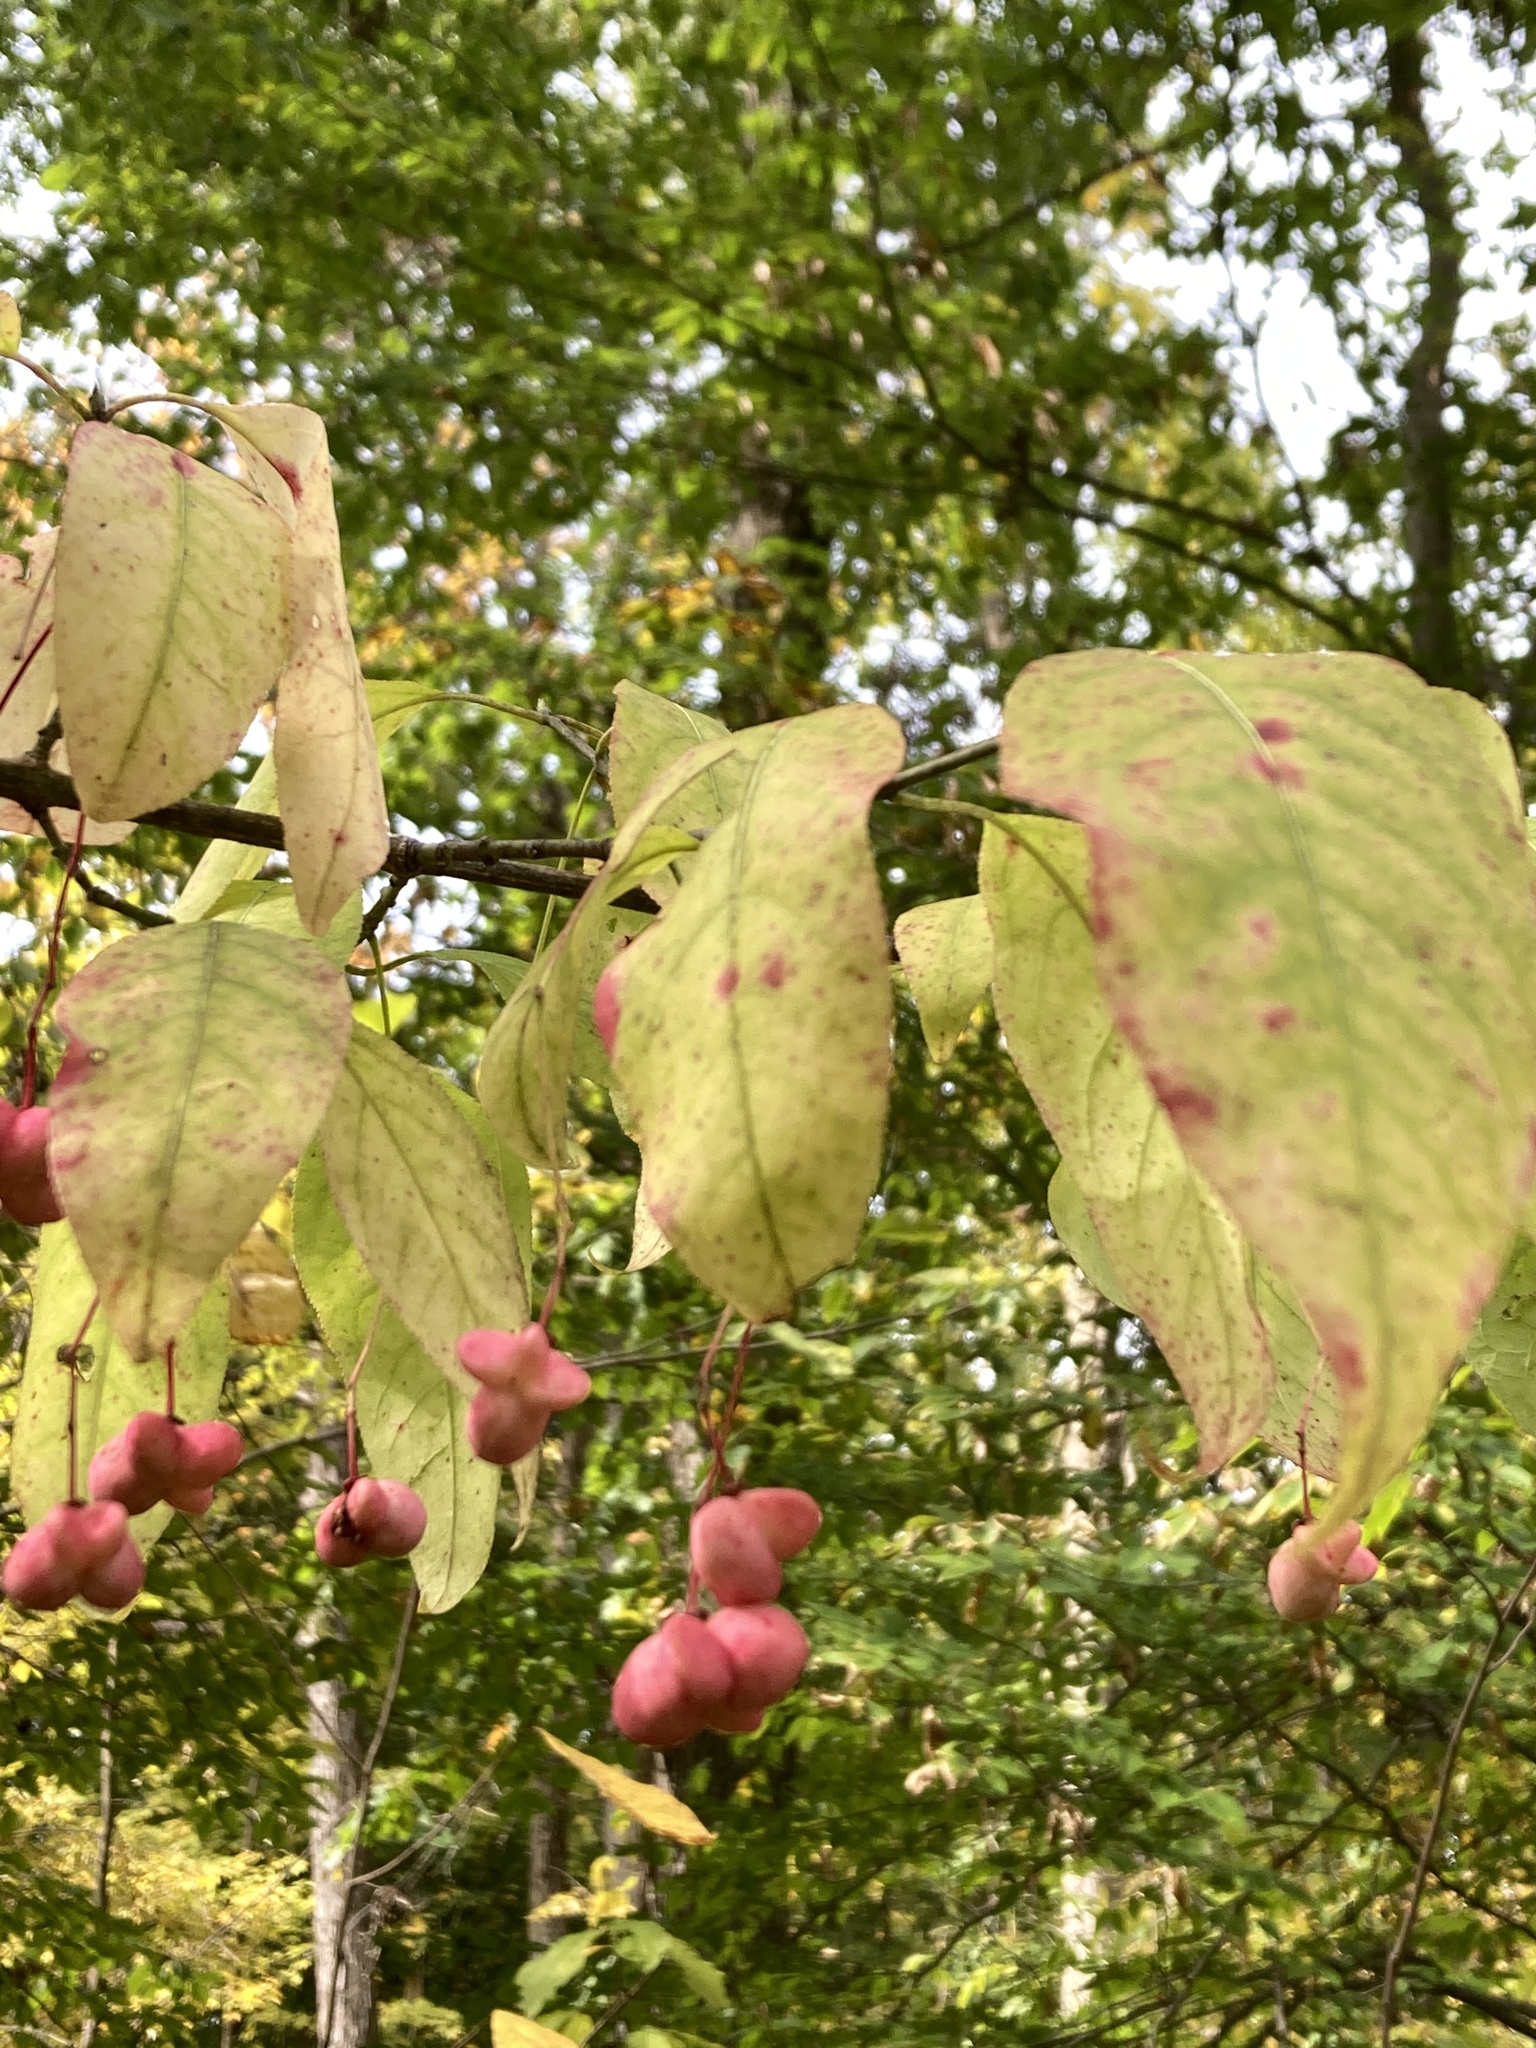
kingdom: Plantae
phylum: Tracheophyta
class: Magnoliopsida
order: Celastrales
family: Celastraceae
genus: Euonymus
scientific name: Euonymus atropurpureus
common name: Eastern wahoo
